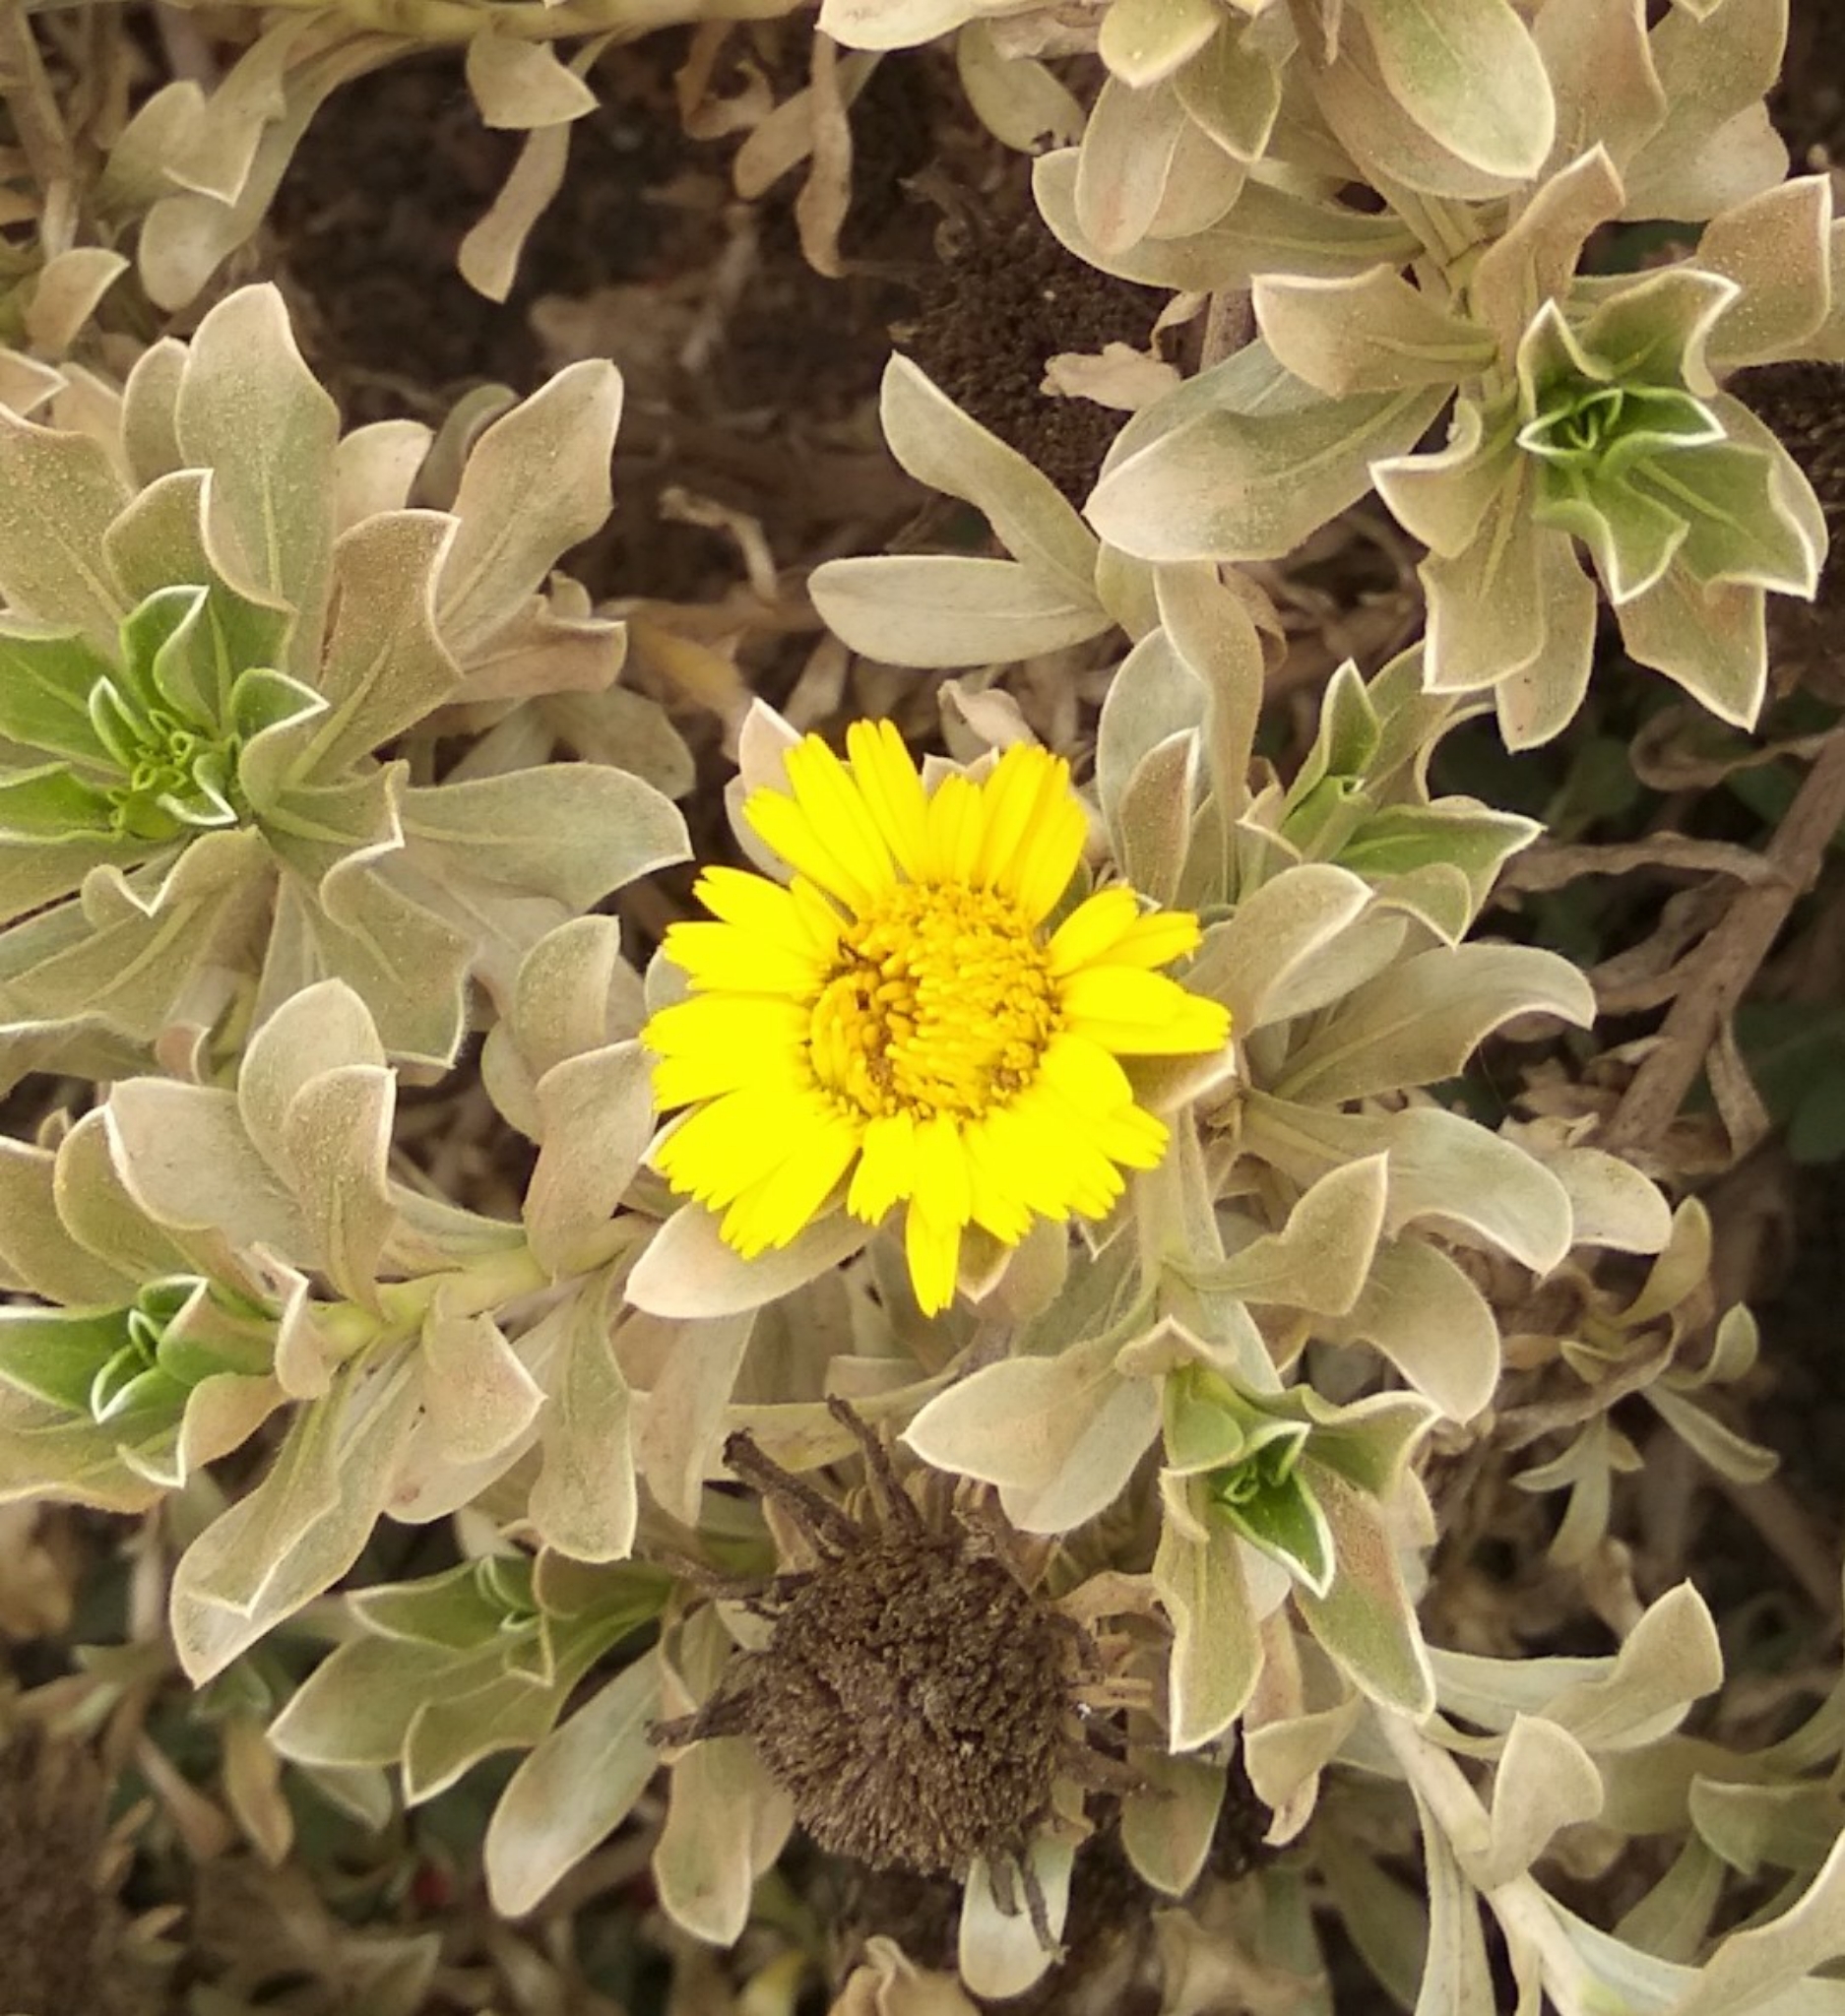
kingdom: Plantae
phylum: Tracheophyta
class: Magnoliopsida
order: Asterales
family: Asteraceae
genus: Asteriscus
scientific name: Asteriscus intermedius
